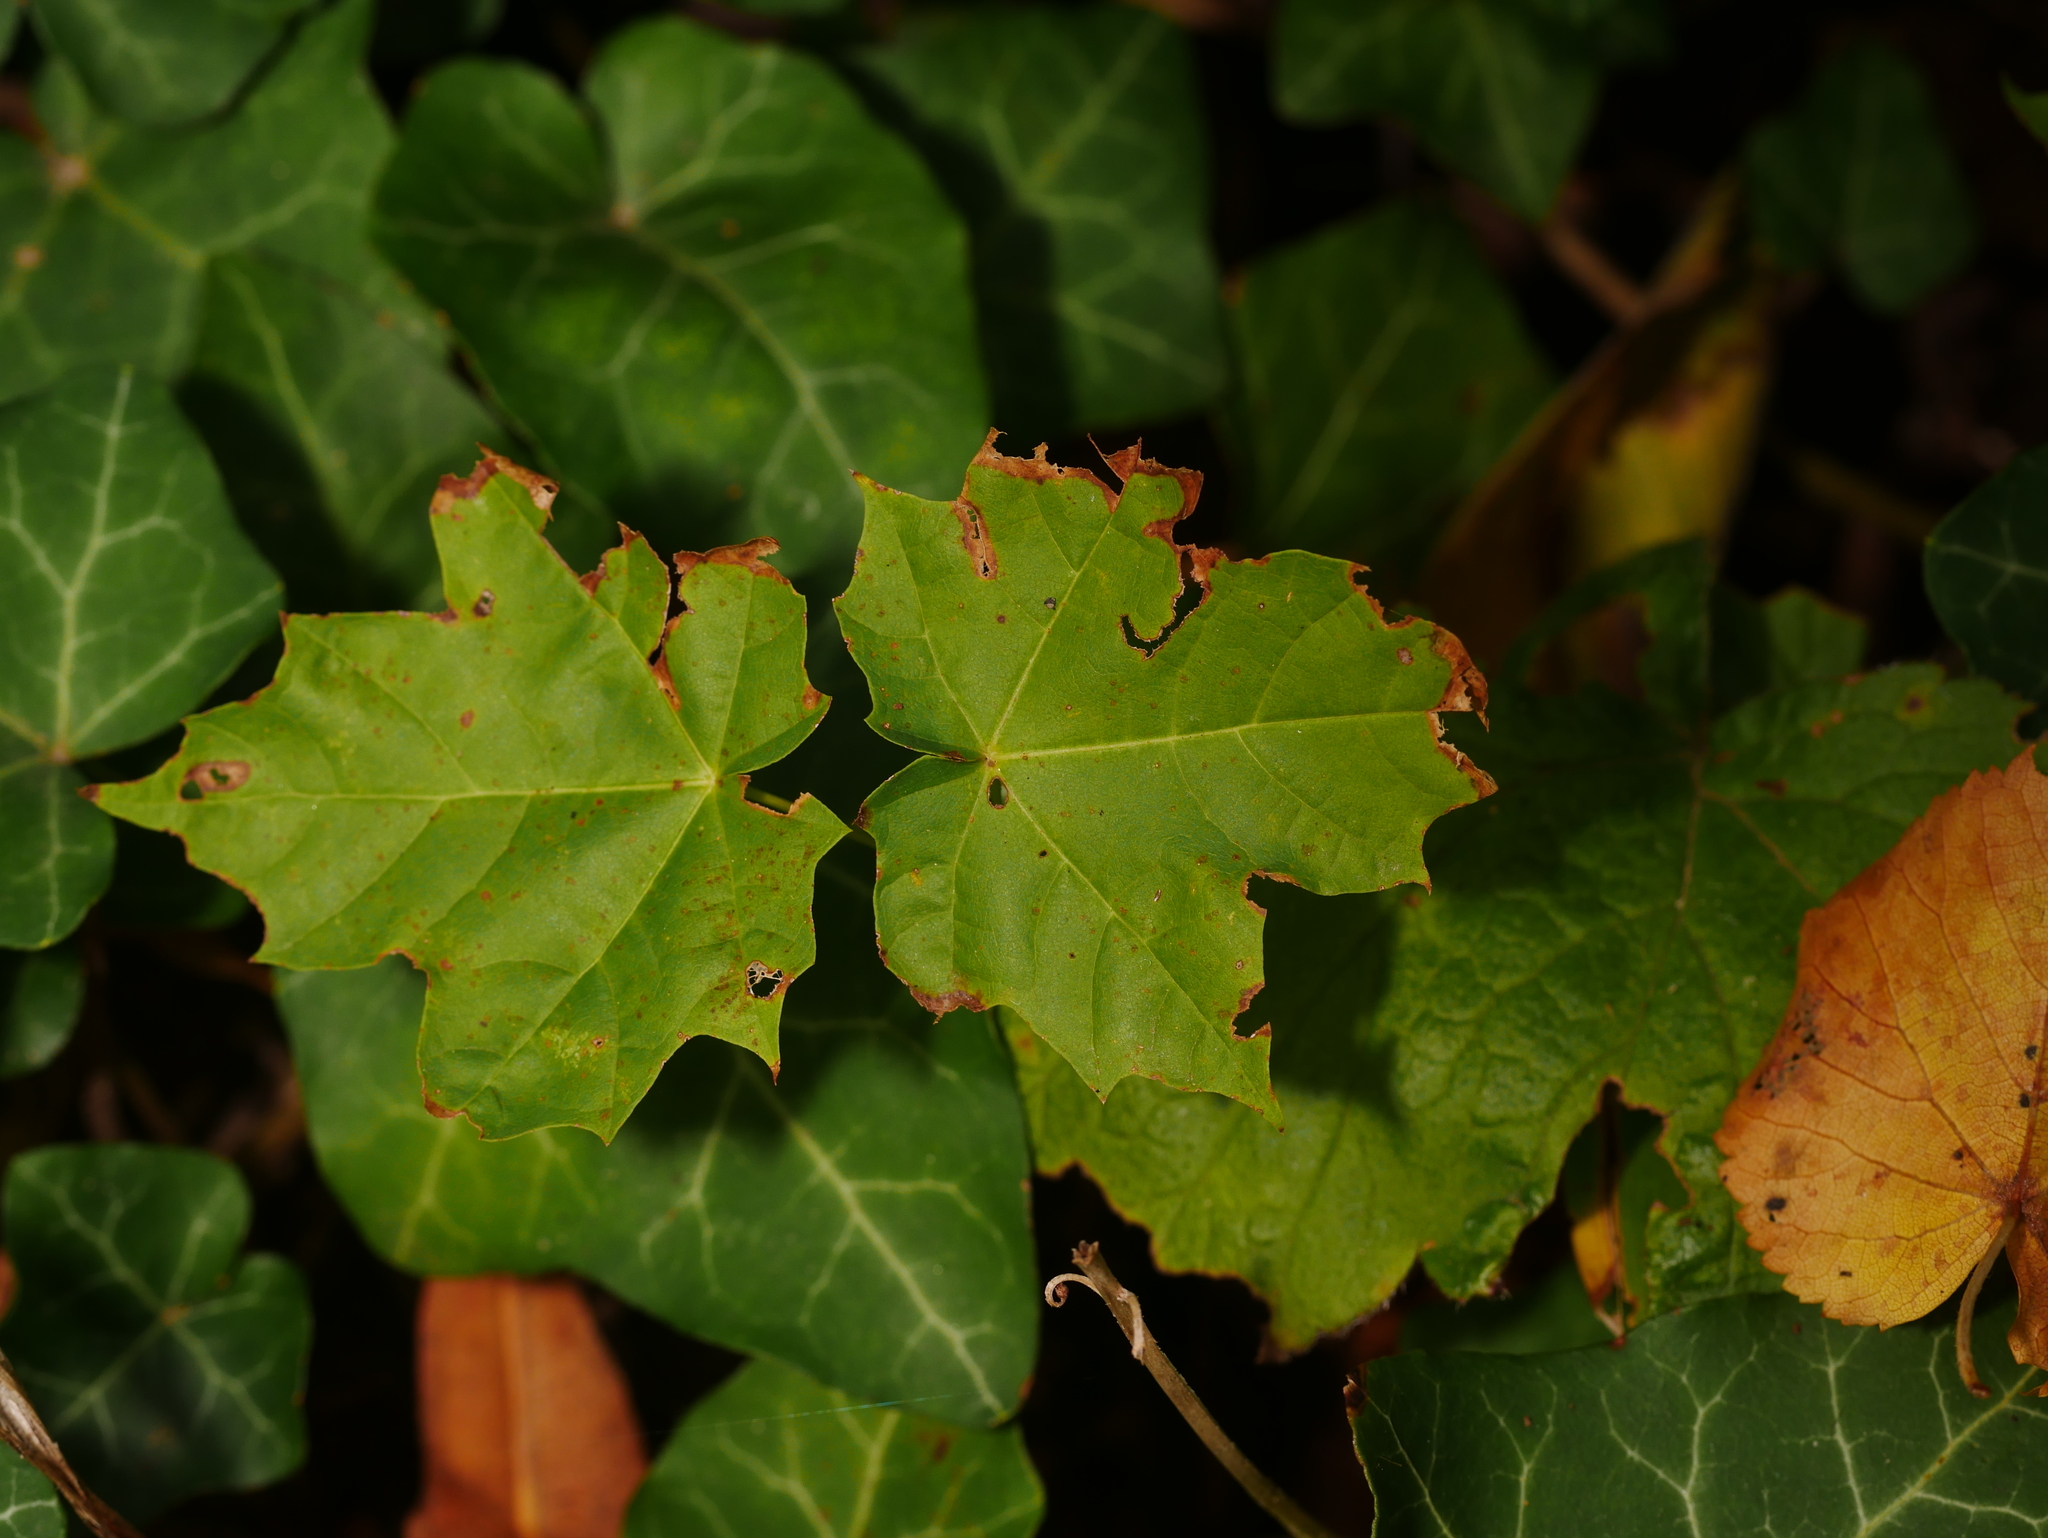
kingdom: Plantae
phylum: Tracheophyta
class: Magnoliopsida
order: Sapindales
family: Sapindaceae
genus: Acer
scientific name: Acer platanoides
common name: Norway maple
